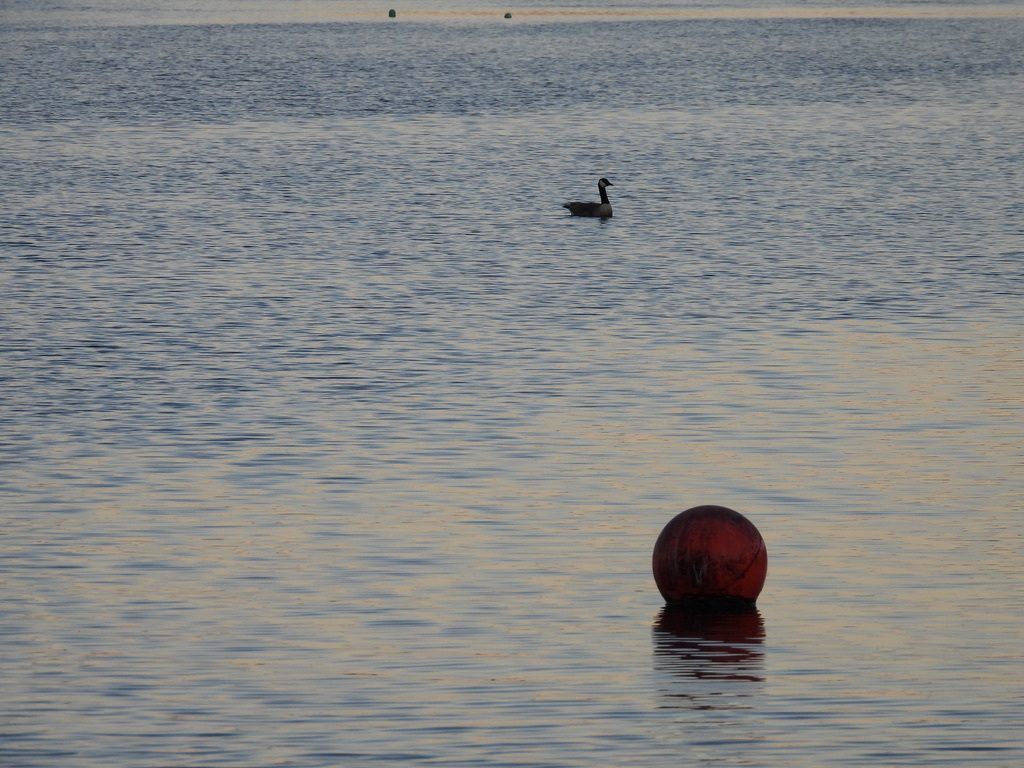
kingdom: Animalia
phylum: Chordata
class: Aves
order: Anseriformes
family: Anatidae
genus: Branta
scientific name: Branta canadensis
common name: Canada goose
